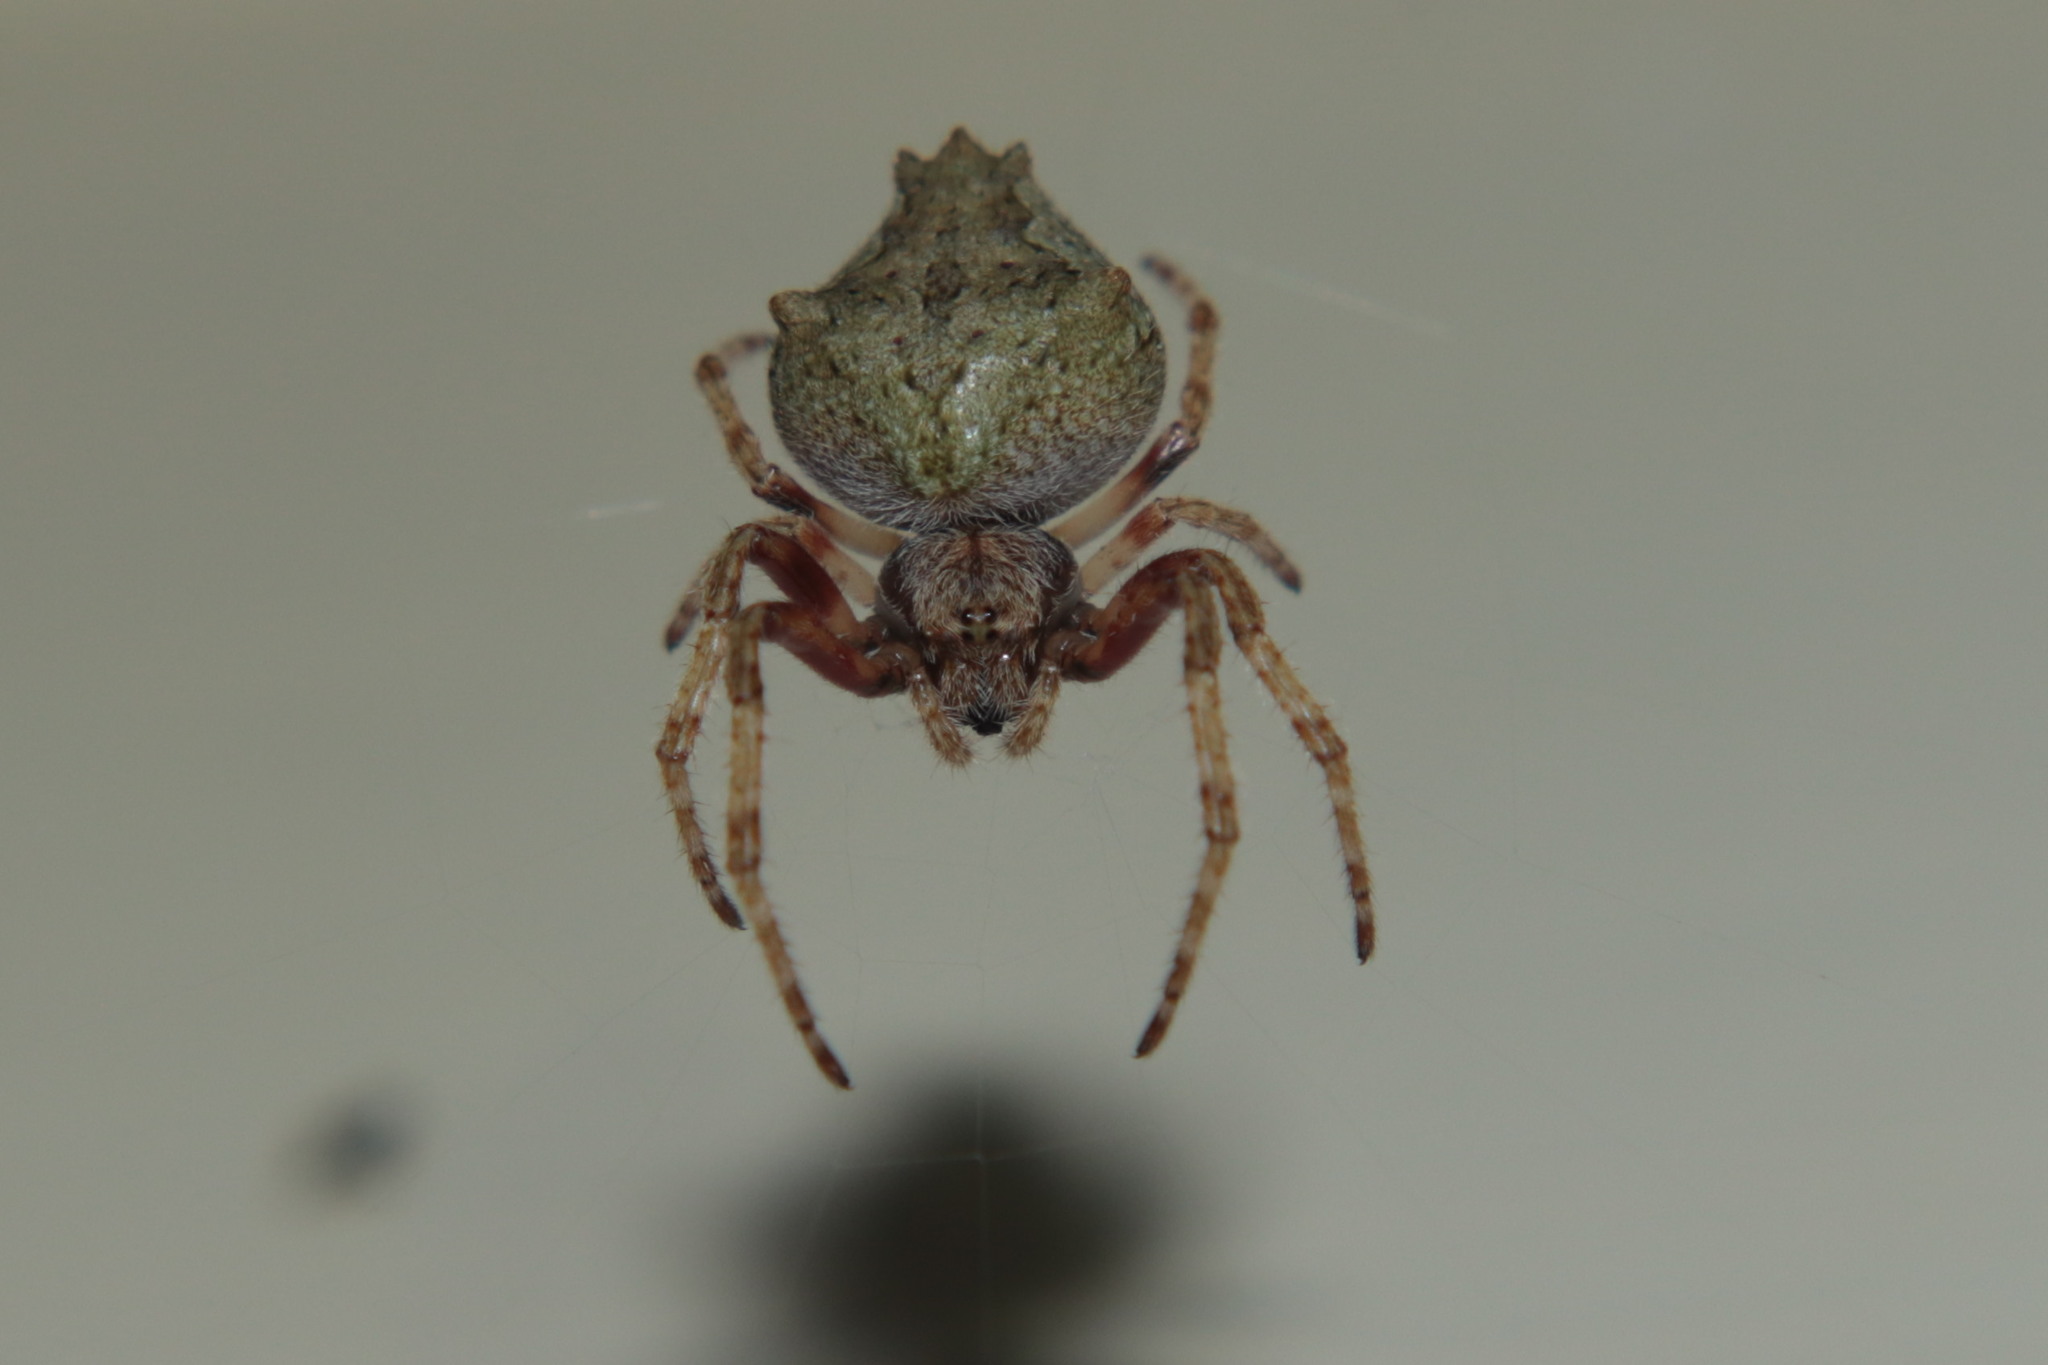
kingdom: Animalia
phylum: Arthropoda
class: Arachnida
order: Araneae
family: Araneidae
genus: Eriophora
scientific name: Eriophora pustulosa
